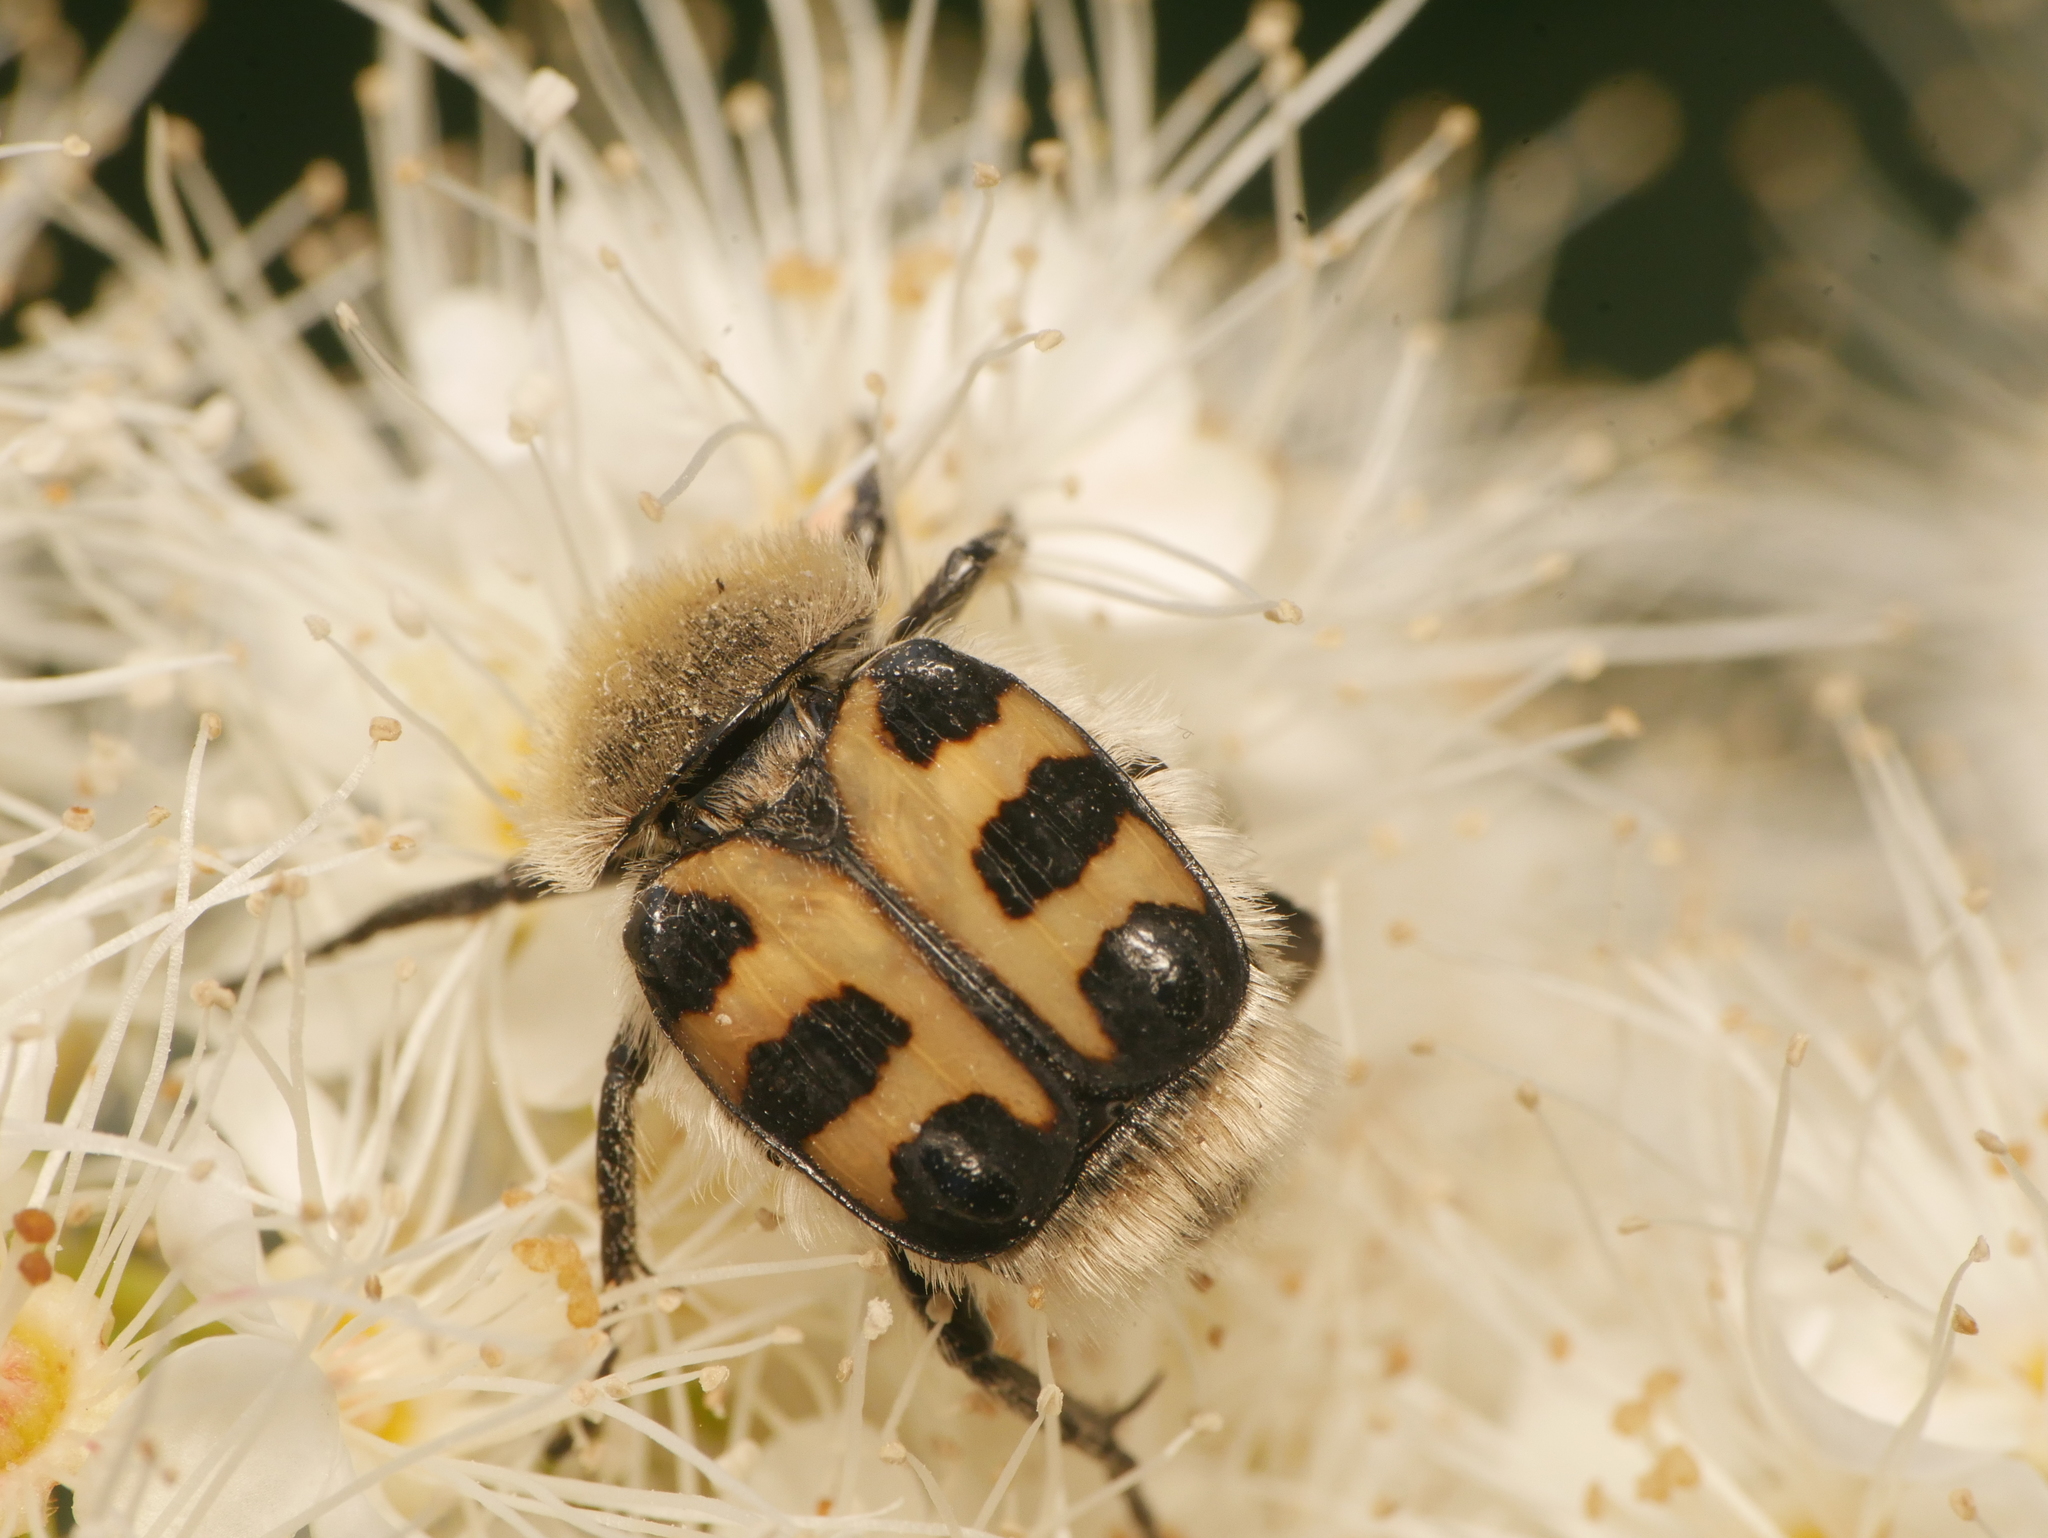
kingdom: Animalia
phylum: Arthropoda
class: Insecta
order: Coleoptera
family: Scarabaeidae
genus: Trichius
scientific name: Trichius gallicus
